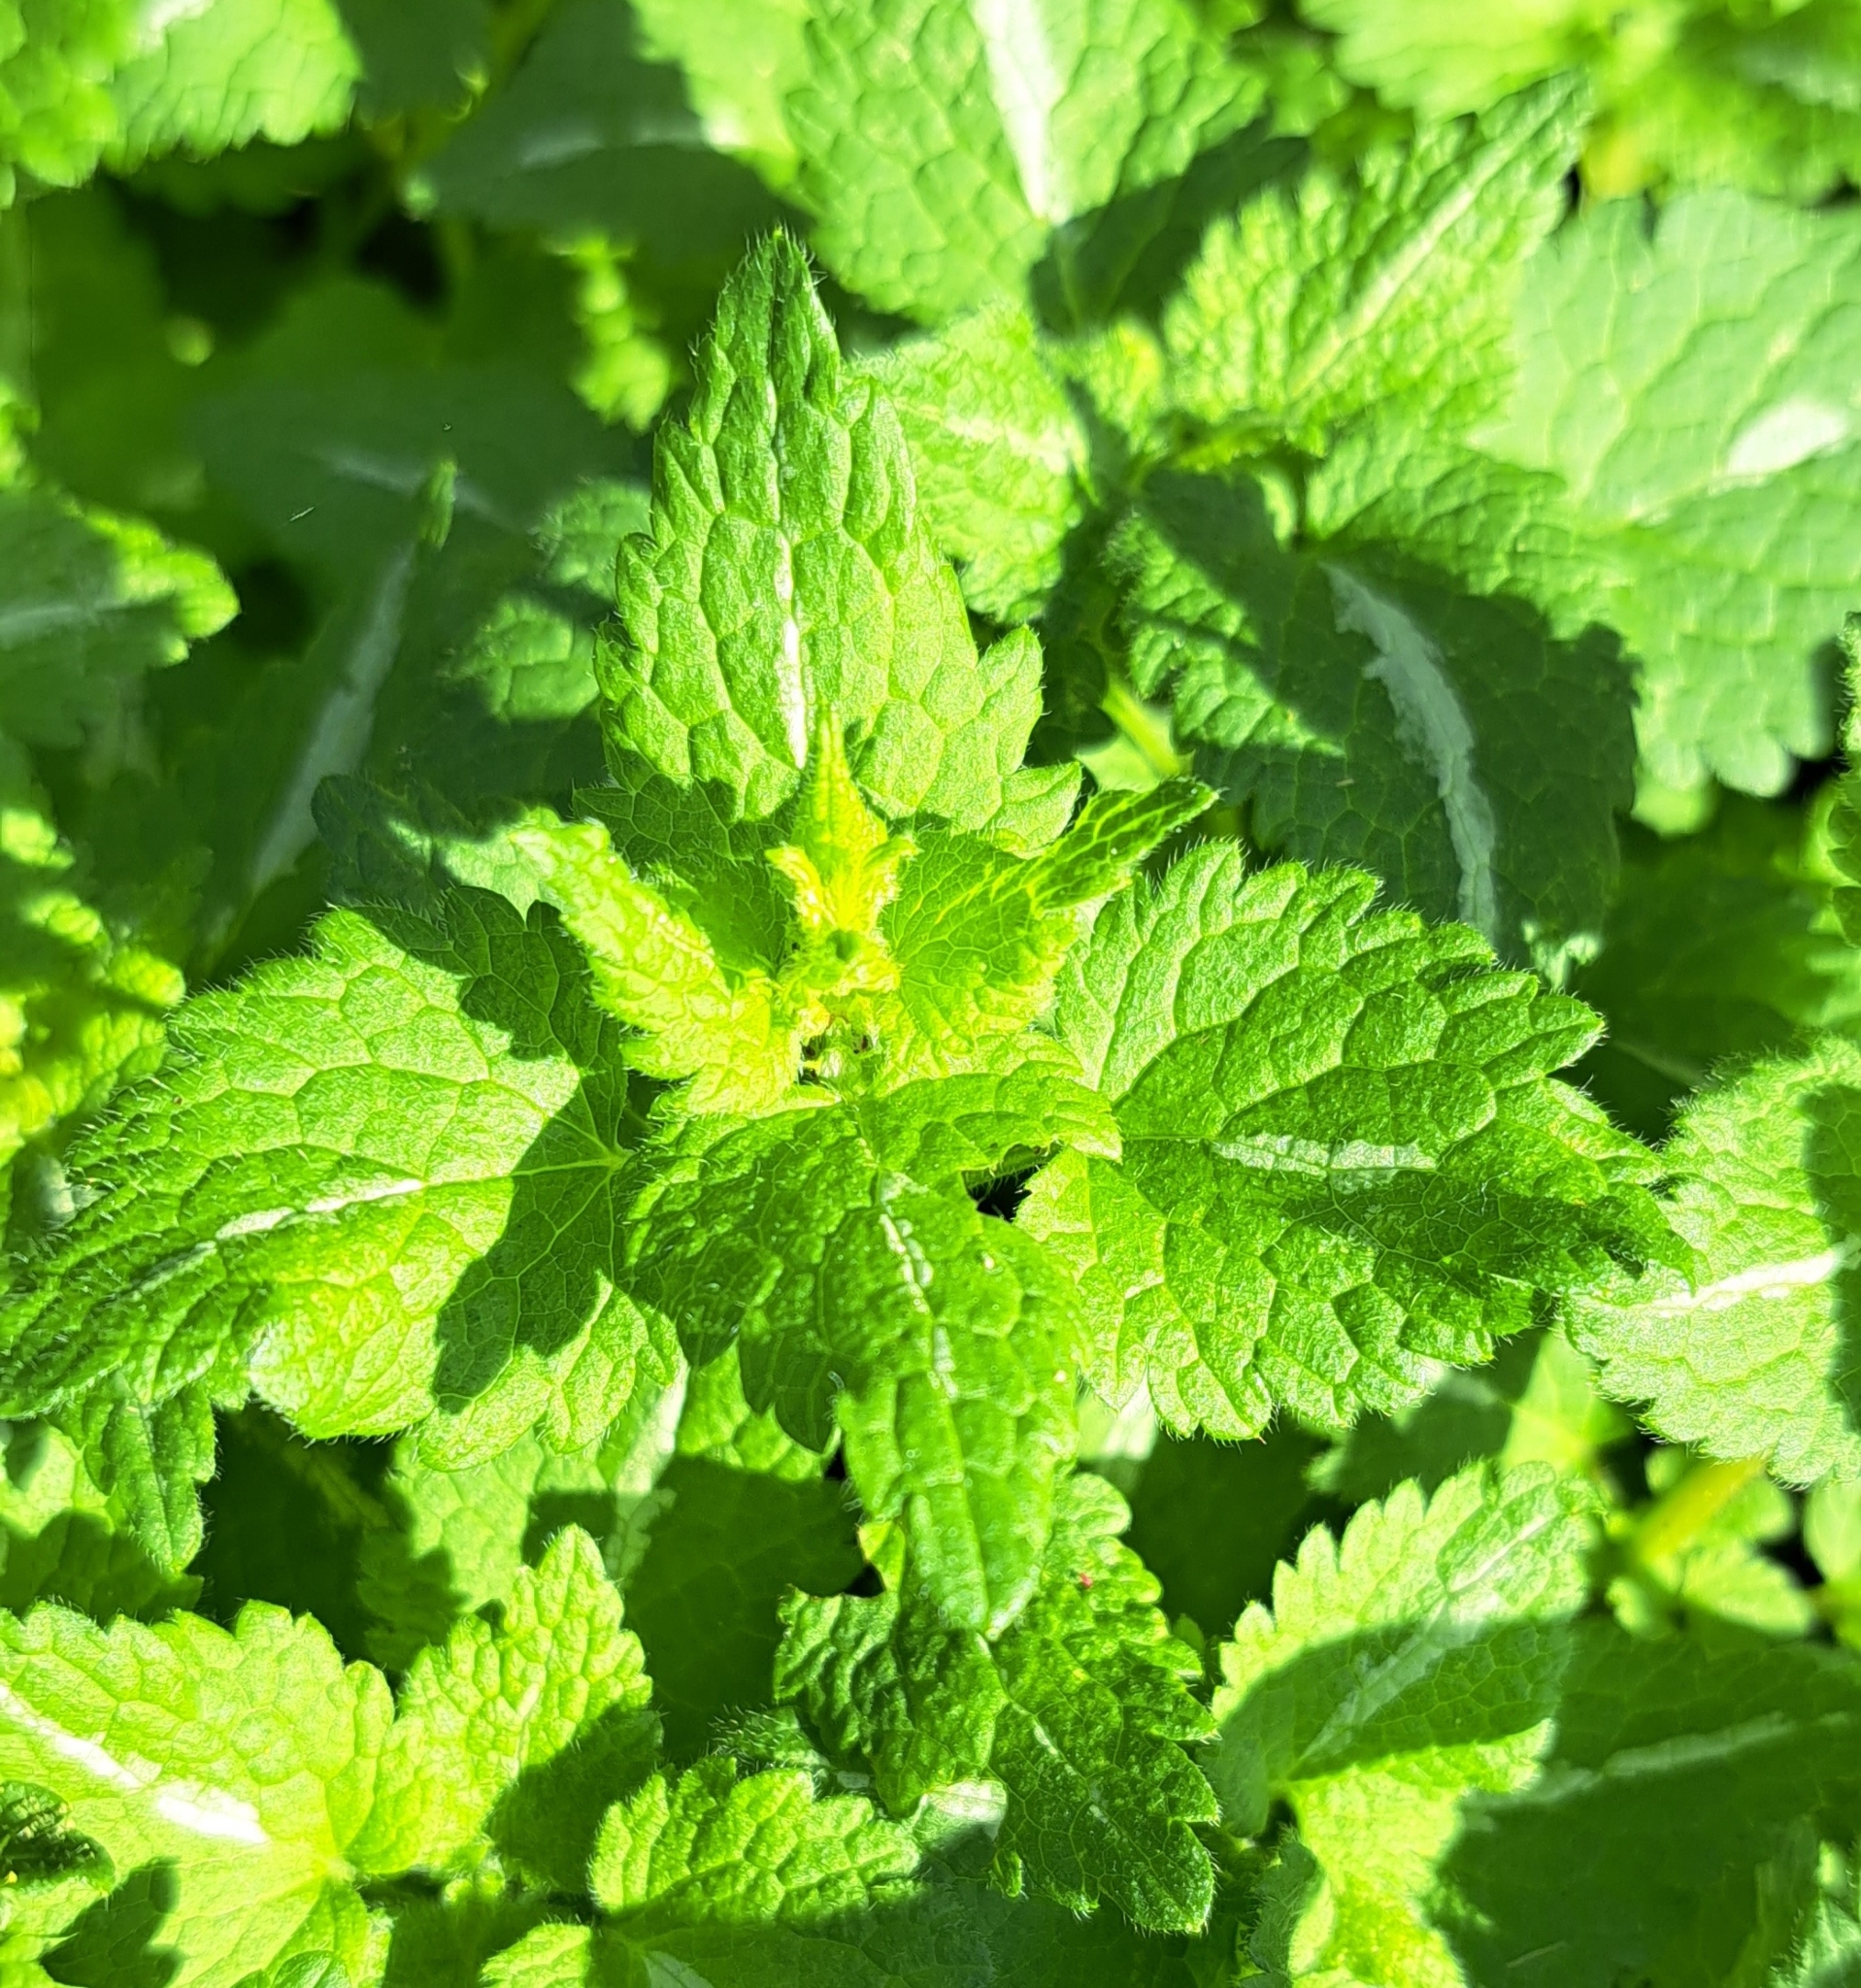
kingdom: Plantae
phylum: Tracheophyta
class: Magnoliopsida
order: Lamiales
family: Lamiaceae
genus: Lamium
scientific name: Lamium maculatum
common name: Spotted dead-nettle
